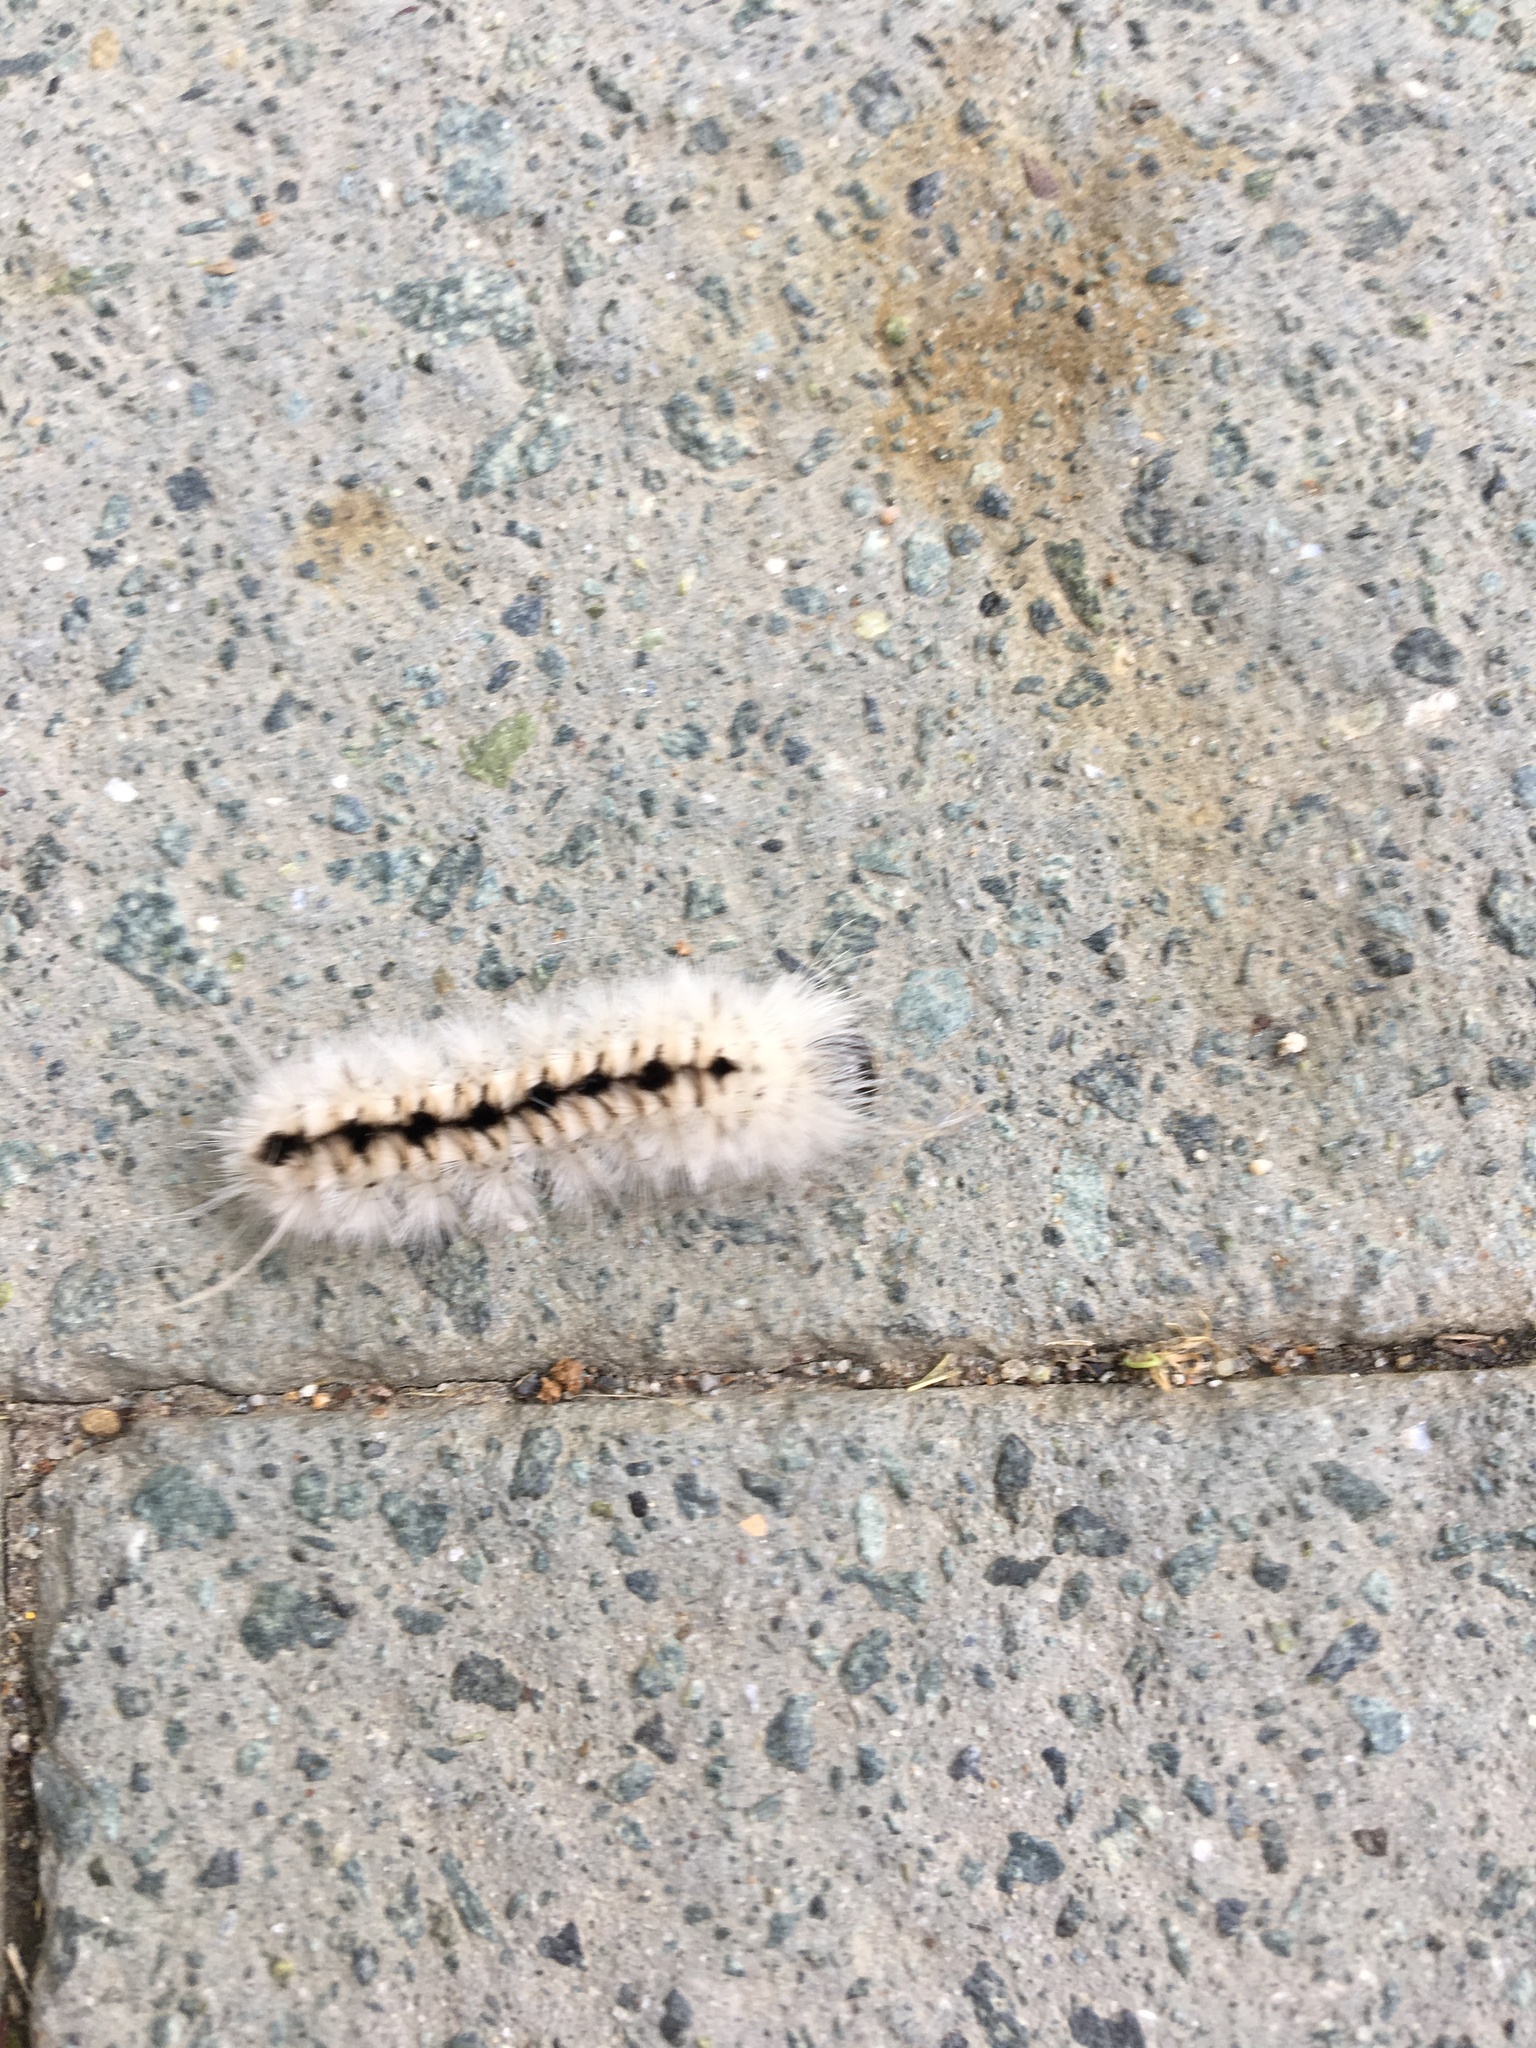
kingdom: Animalia
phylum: Arthropoda
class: Insecta
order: Lepidoptera
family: Erebidae
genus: Lophocampa
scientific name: Lophocampa caryae
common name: Hickory tussock moth
